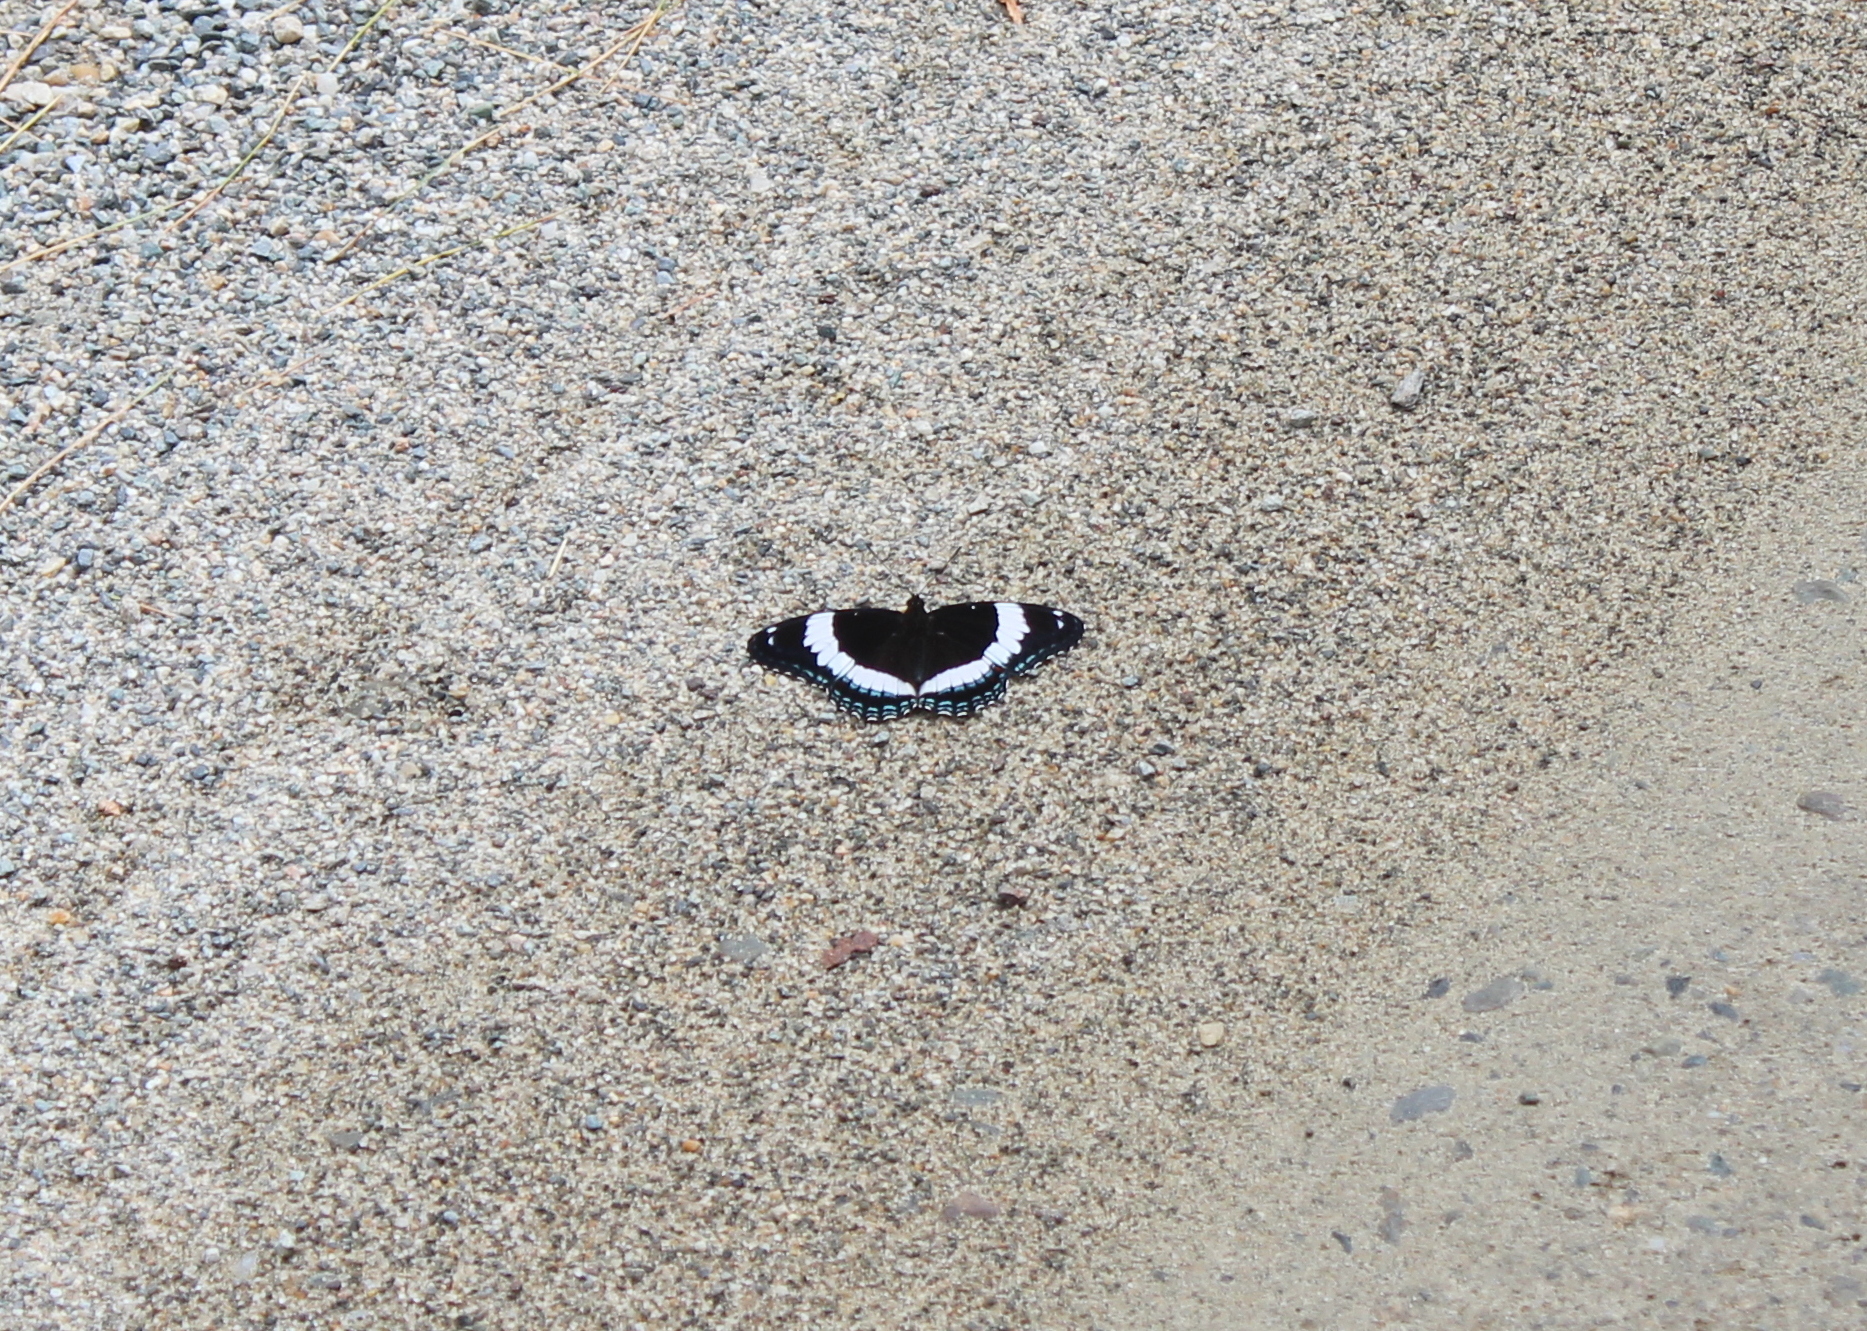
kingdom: Animalia
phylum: Arthropoda
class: Insecta
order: Lepidoptera
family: Nymphalidae
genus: Limenitis
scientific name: Limenitis arthemis
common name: Red-spotted admiral
